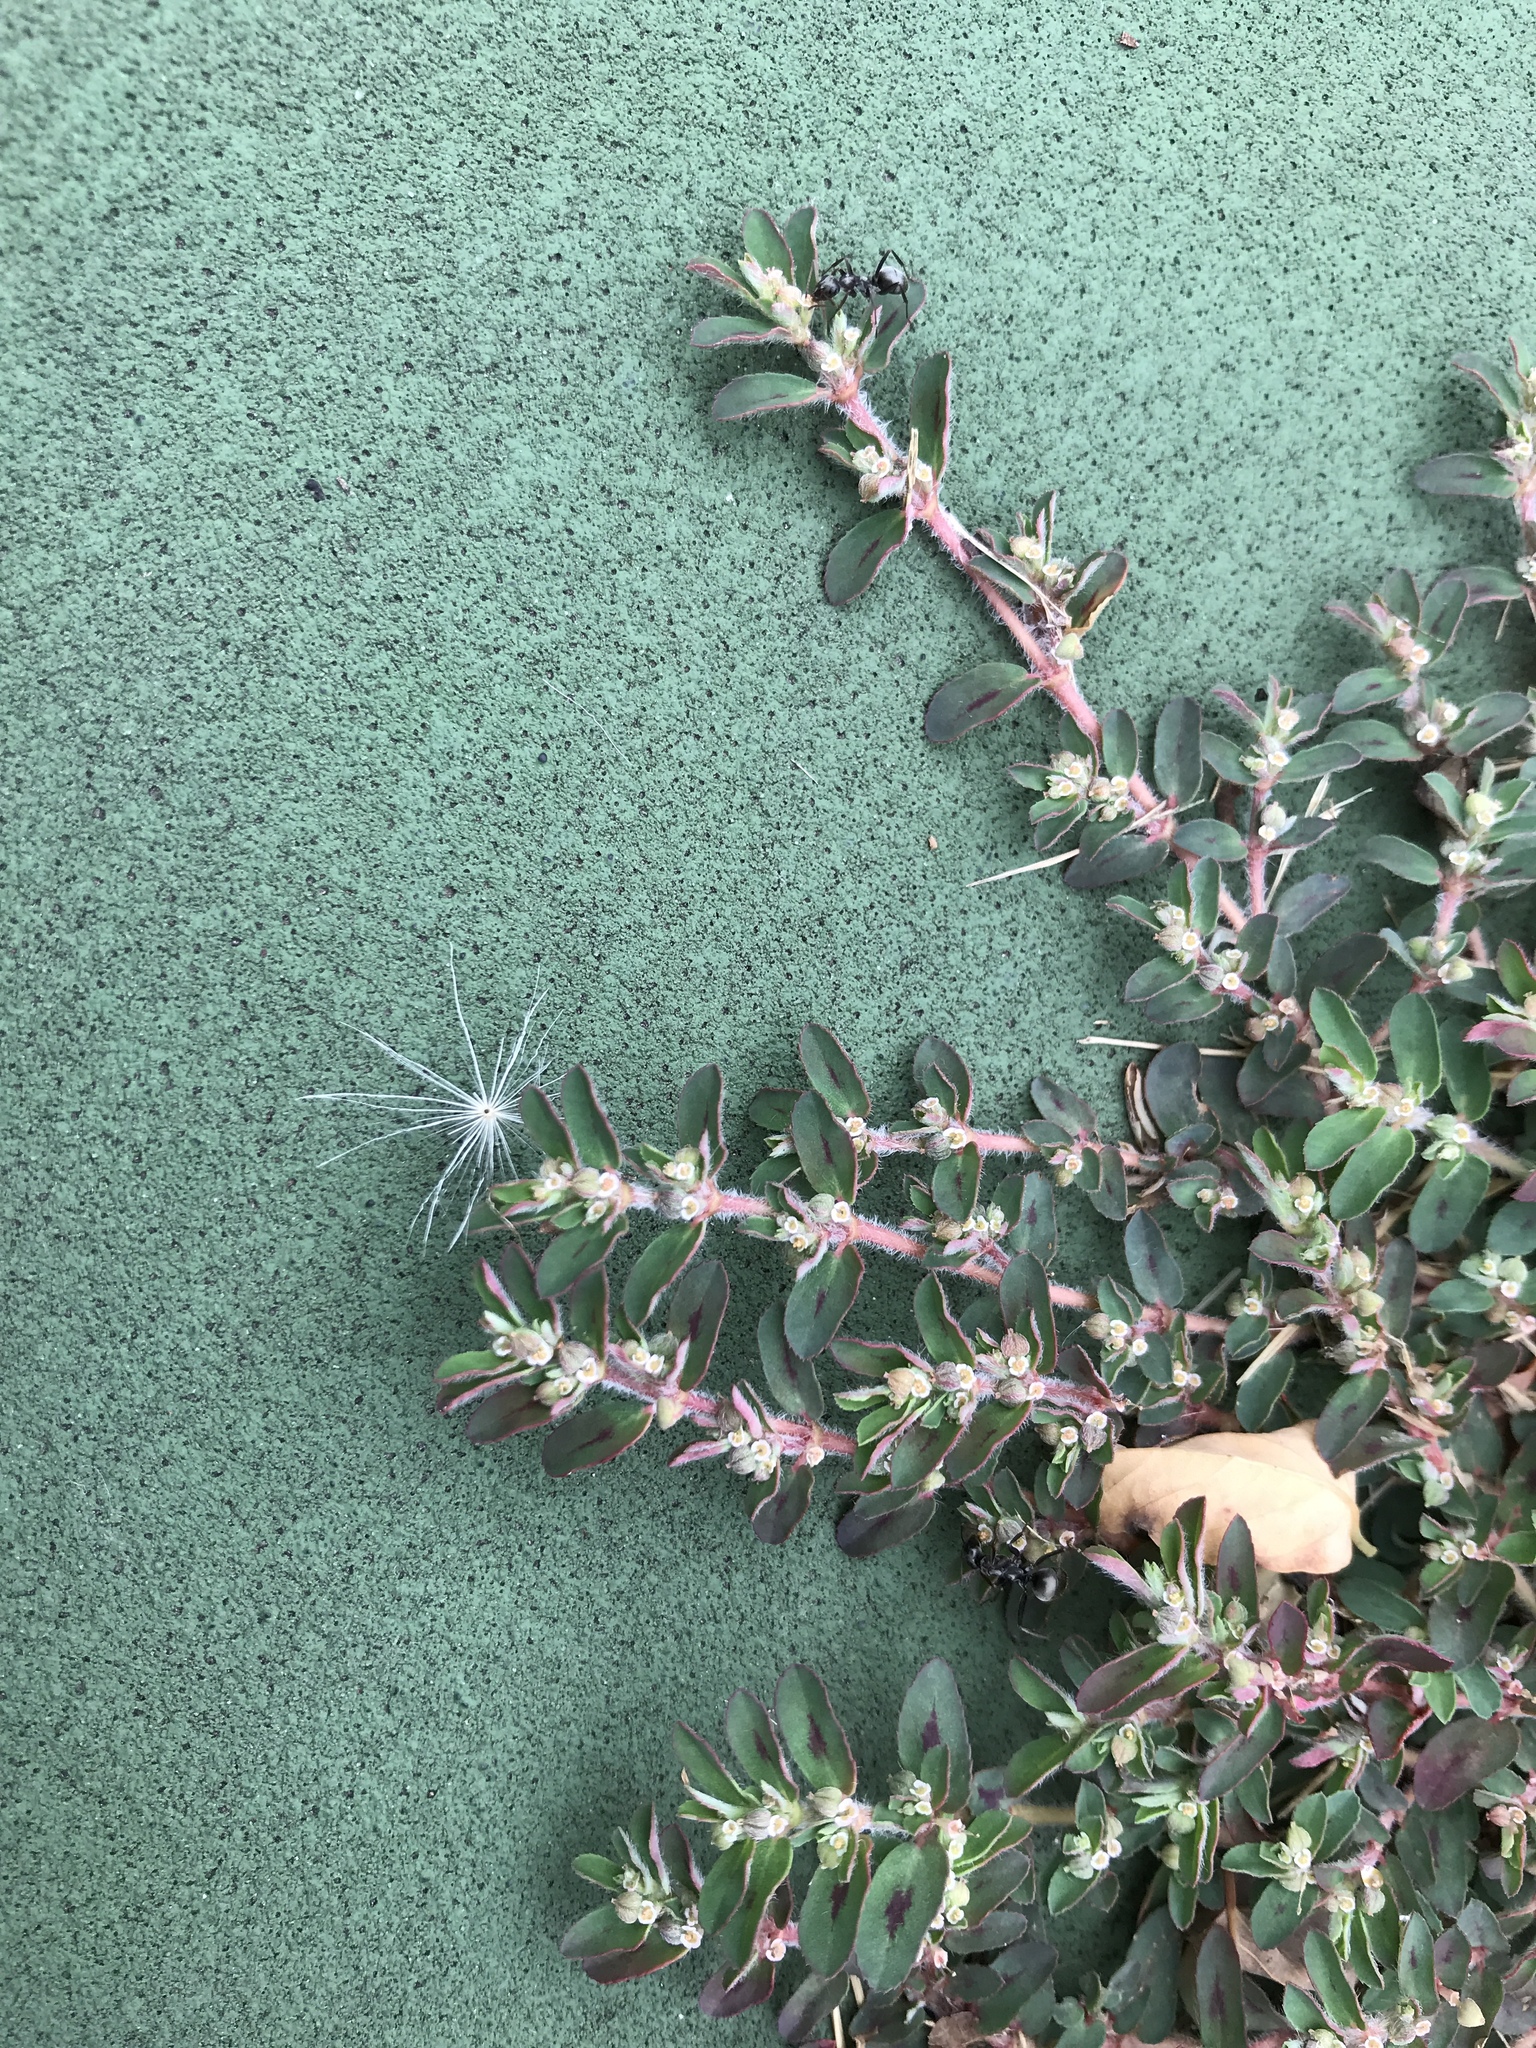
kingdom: Plantae
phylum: Tracheophyta
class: Magnoliopsida
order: Malpighiales
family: Euphorbiaceae
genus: Euphorbia
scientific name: Euphorbia maculata
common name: Spotted spurge
